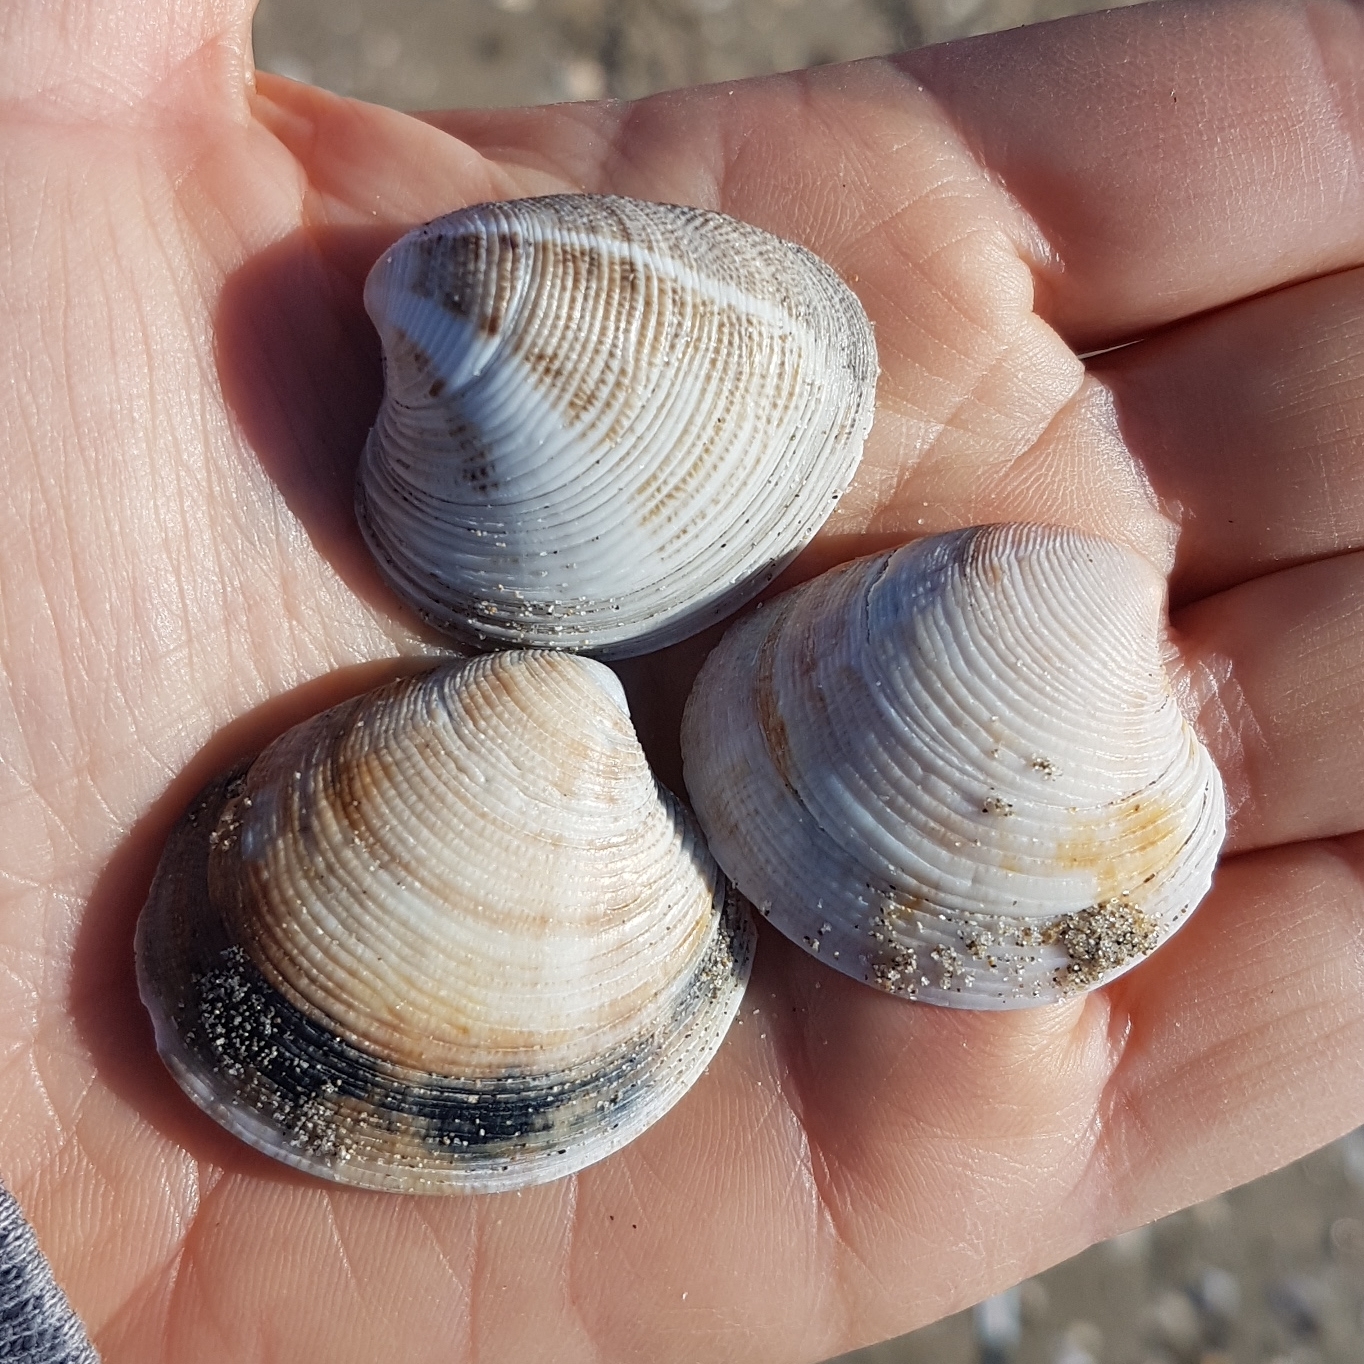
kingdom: Animalia
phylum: Mollusca
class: Bivalvia
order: Venerida
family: Veneridae
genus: Chamelea
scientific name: Chamelea gallina
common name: Chicken venus
